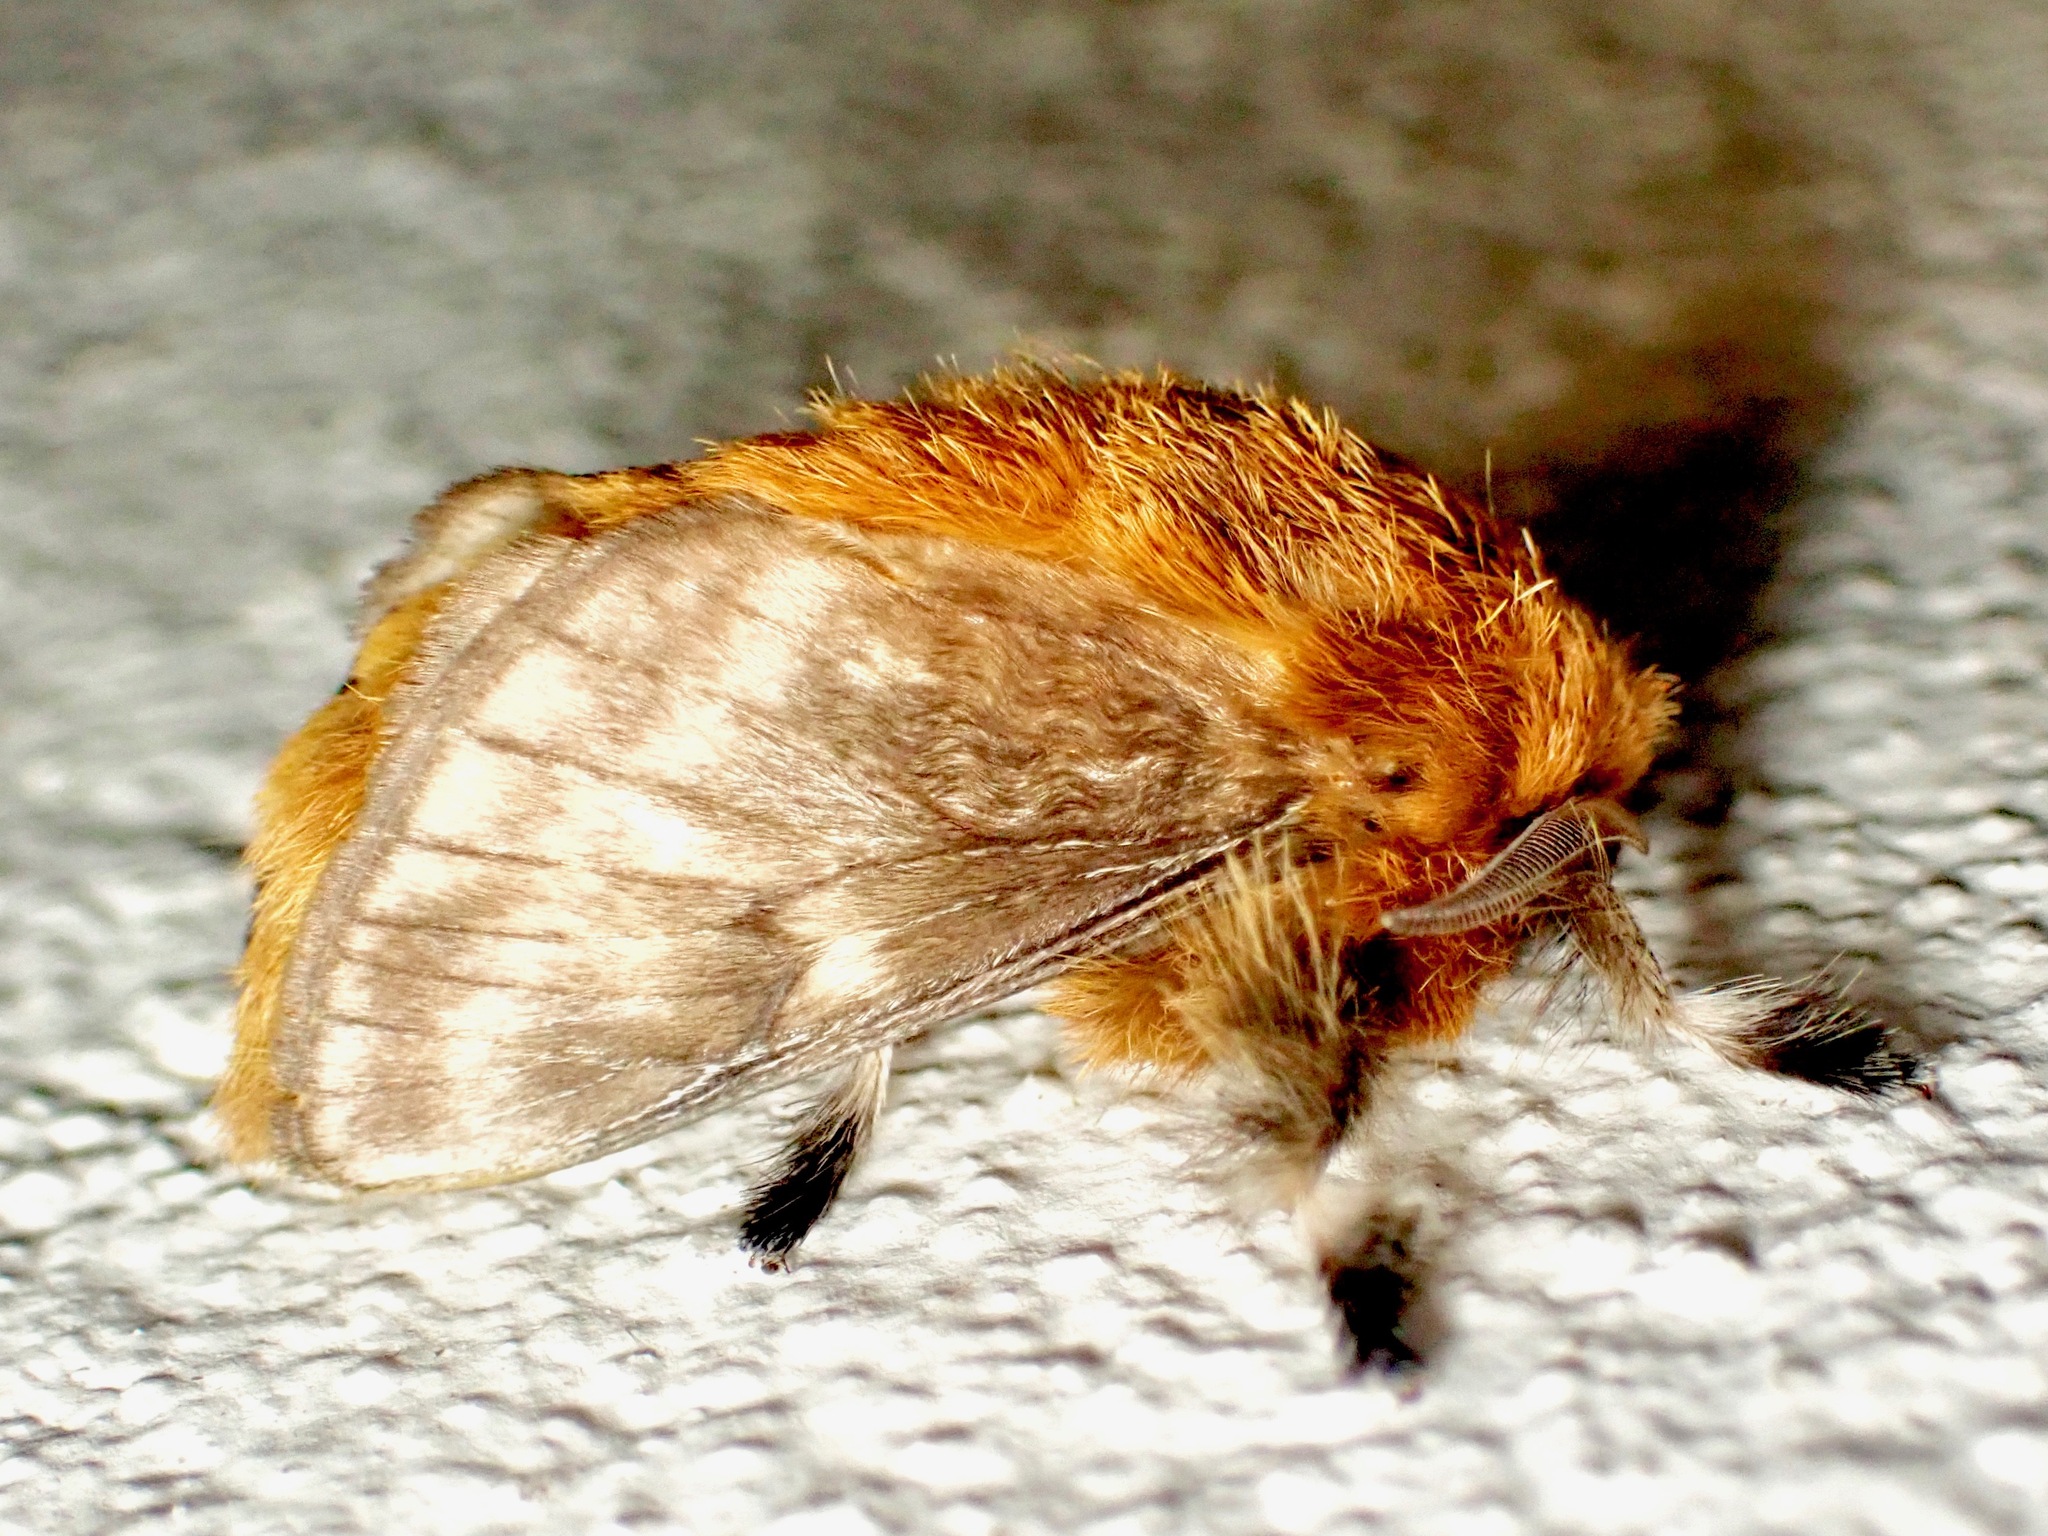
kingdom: Animalia
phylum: Arthropoda
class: Insecta
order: Lepidoptera
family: Megalopygidae
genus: Megalopyge
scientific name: Megalopyge undulata
